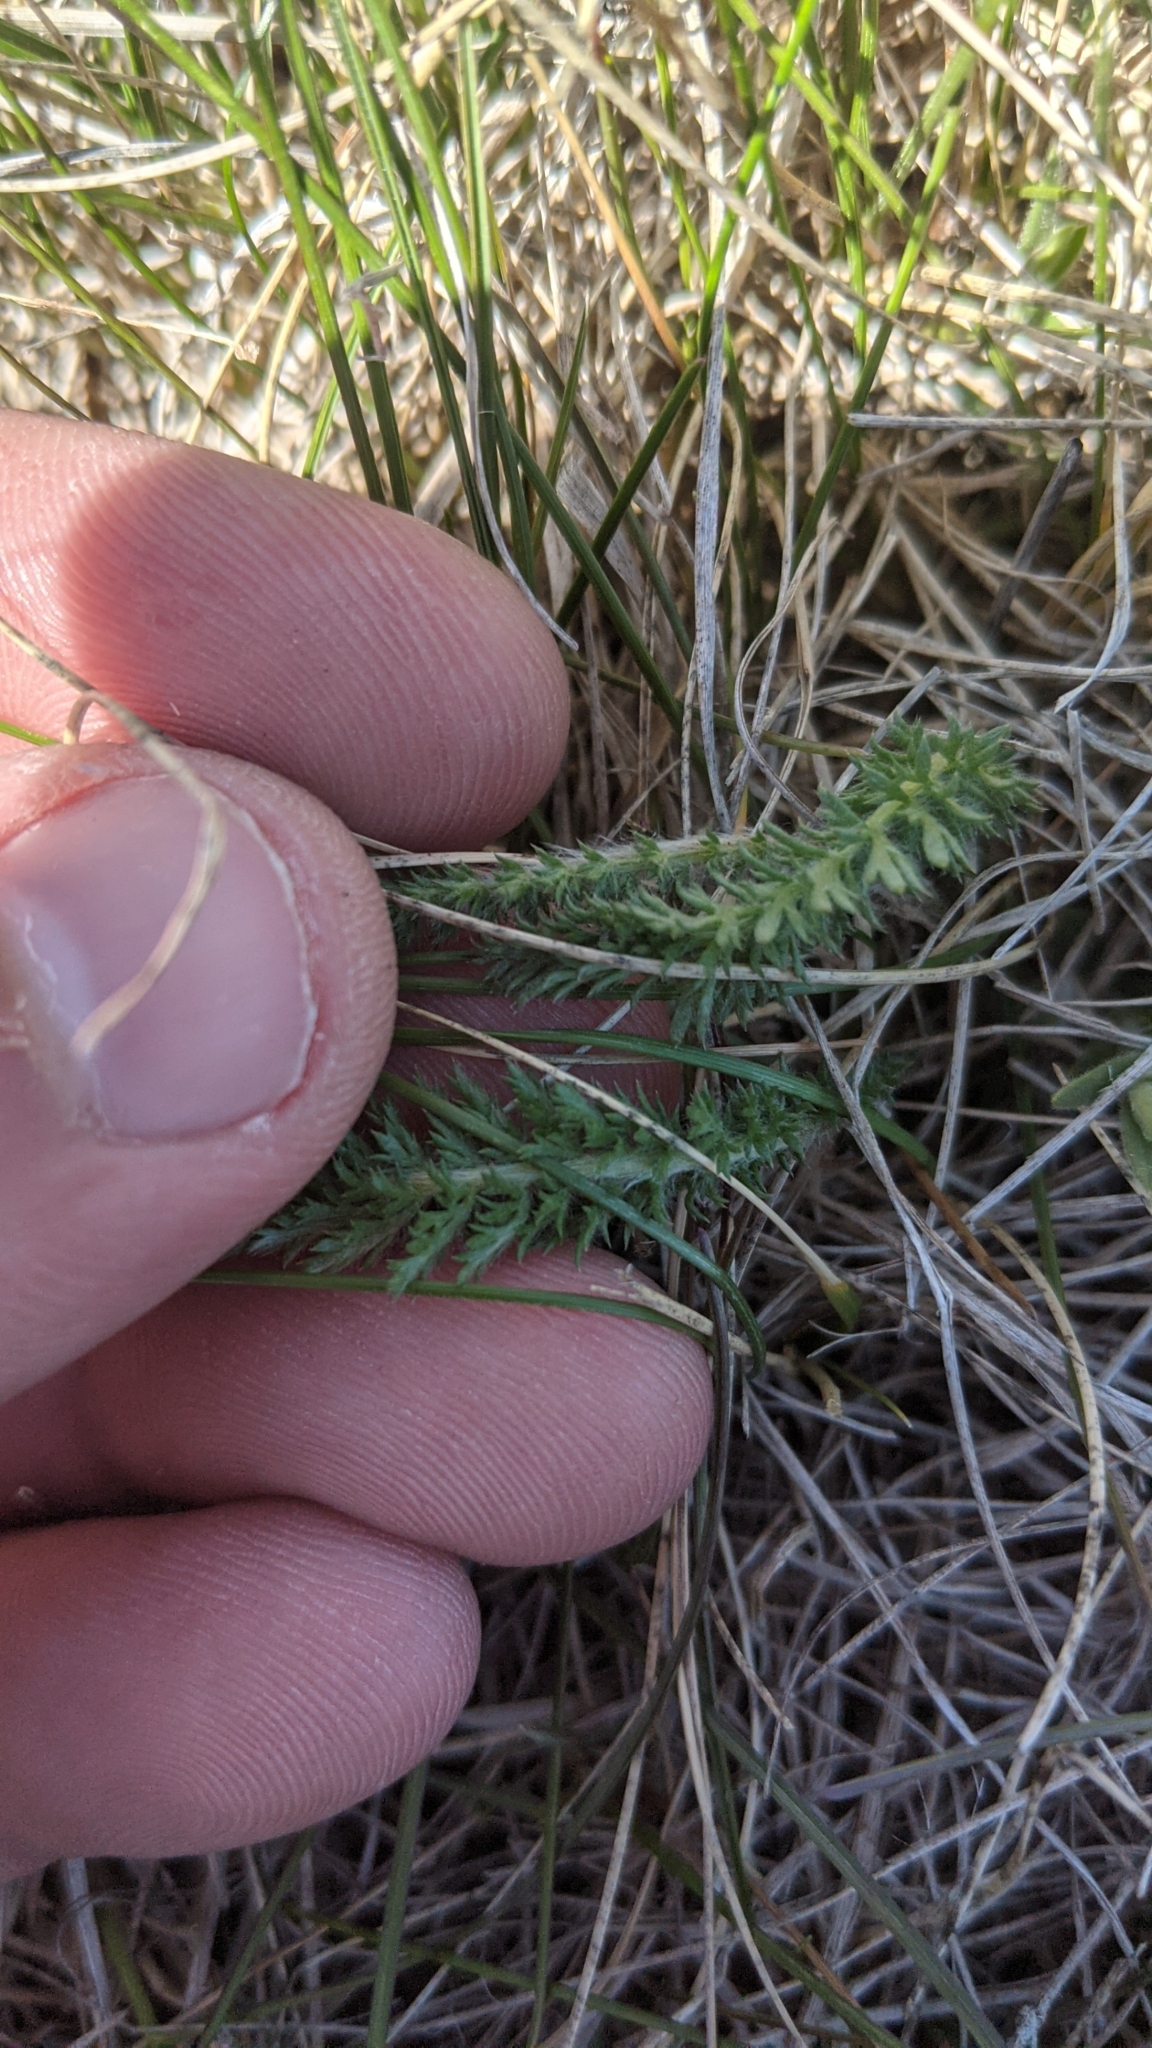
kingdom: Plantae
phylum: Tracheophyta
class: Magnoliopsida
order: Asterales
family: Asteraceae
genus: Achillea
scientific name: Achillea millefolium
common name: Yarrow
